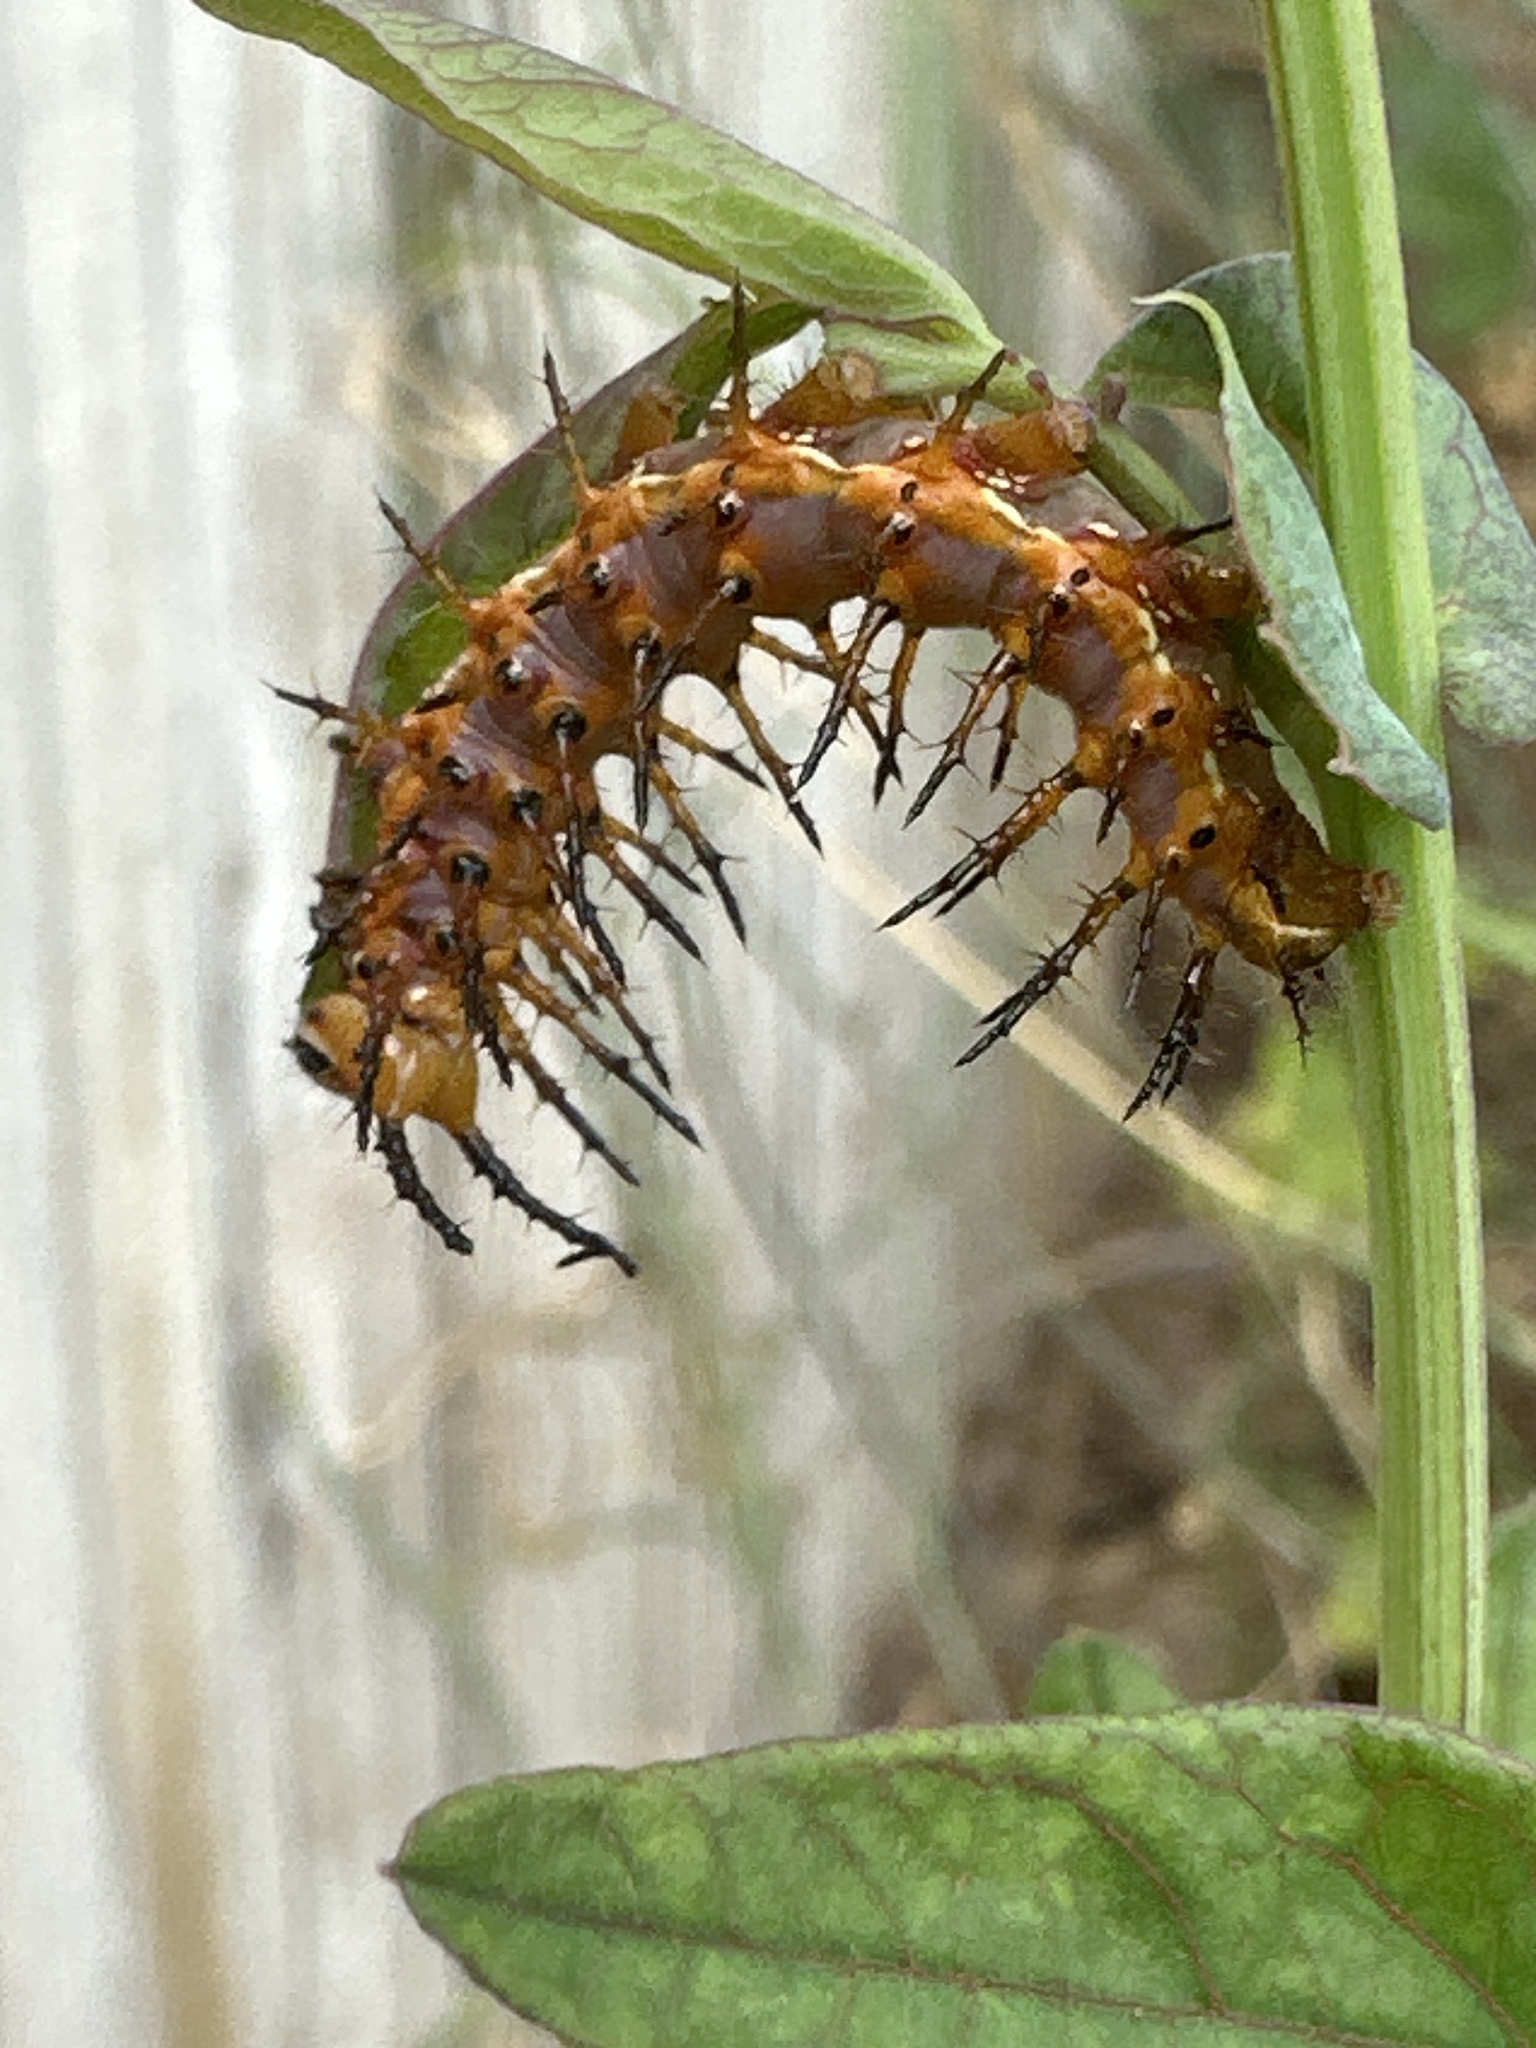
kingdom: Animalia
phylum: Arthropoda
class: Insecta
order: Lepidoptera
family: Nymphalidae
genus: Dione
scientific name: Dione vanillae
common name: Gulf fritillary
